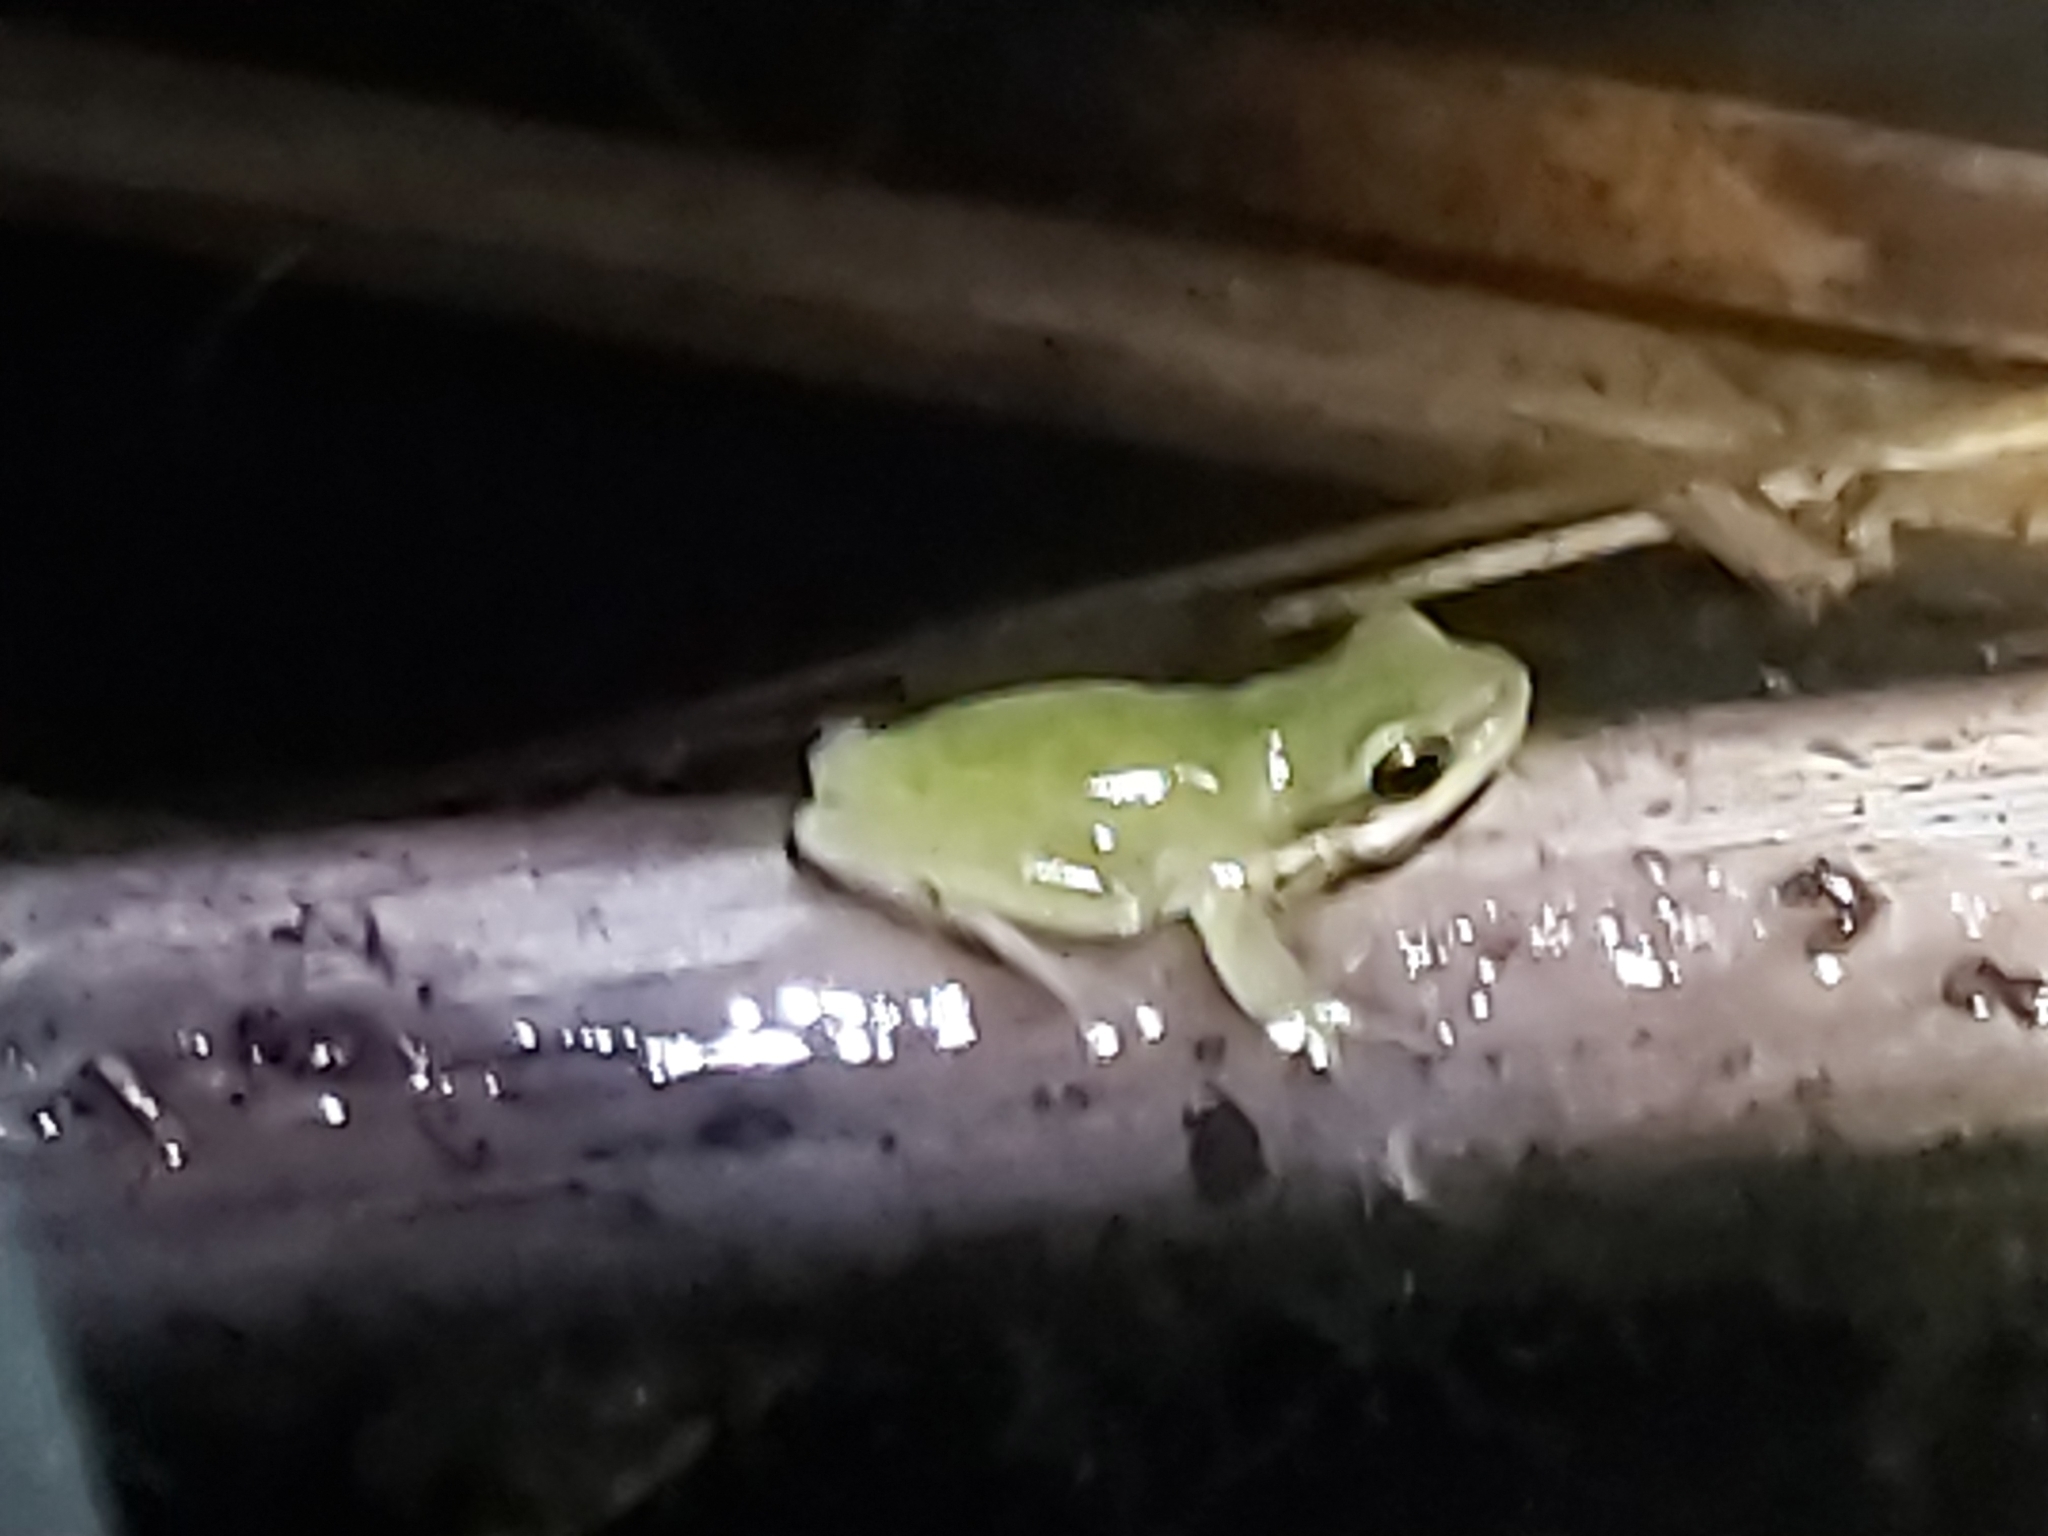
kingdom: Animalia
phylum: Chordata
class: Amphibia
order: Anura
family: Pelodryadidae
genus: Litoria
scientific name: Litoria fallax
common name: Eastern dwarf treefrog
